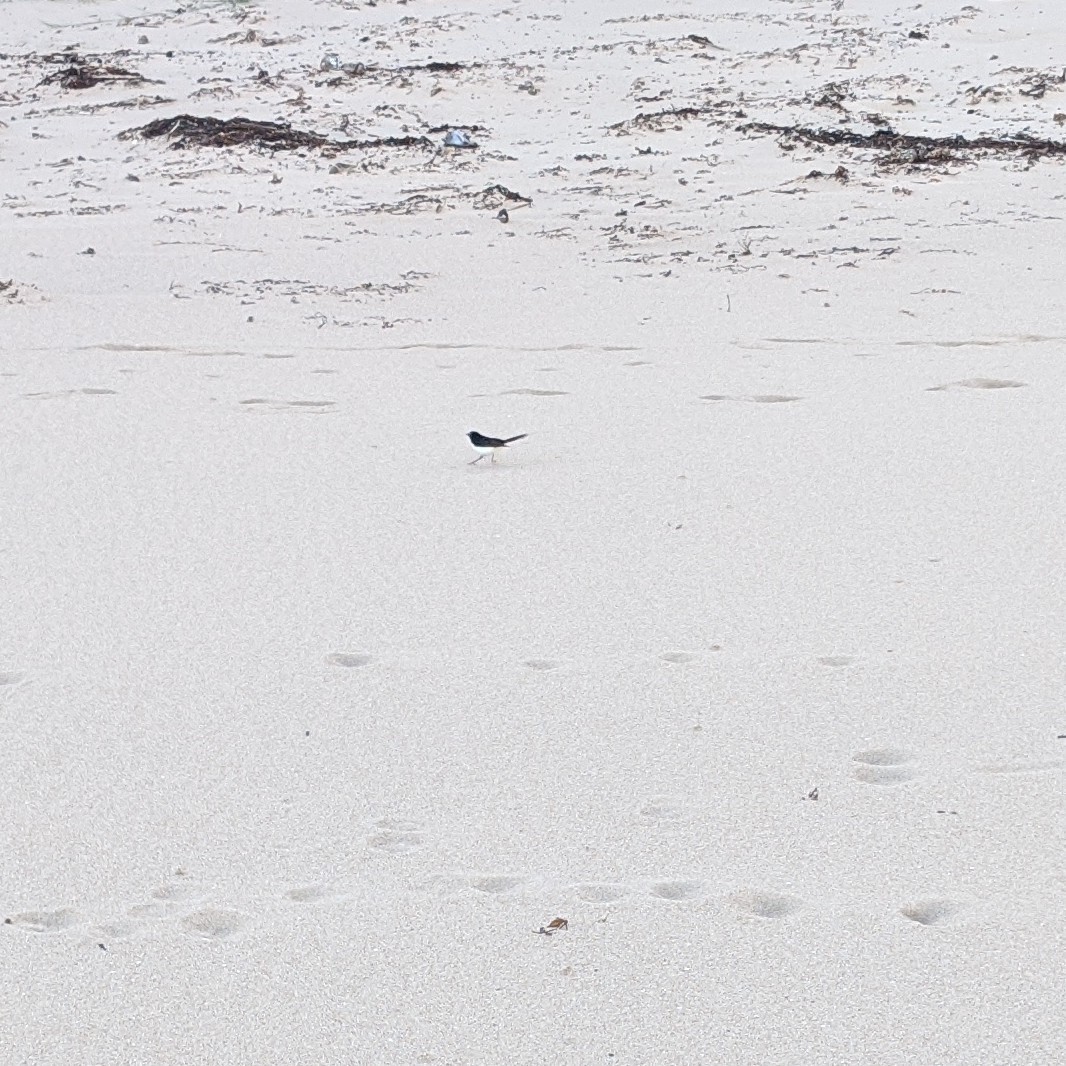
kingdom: Animalia
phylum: Chordata
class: Aves
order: Passeriformes
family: Rhipiduridae
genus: Rhipidura
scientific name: Rhipidura leucophrys
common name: Willie wagtail
